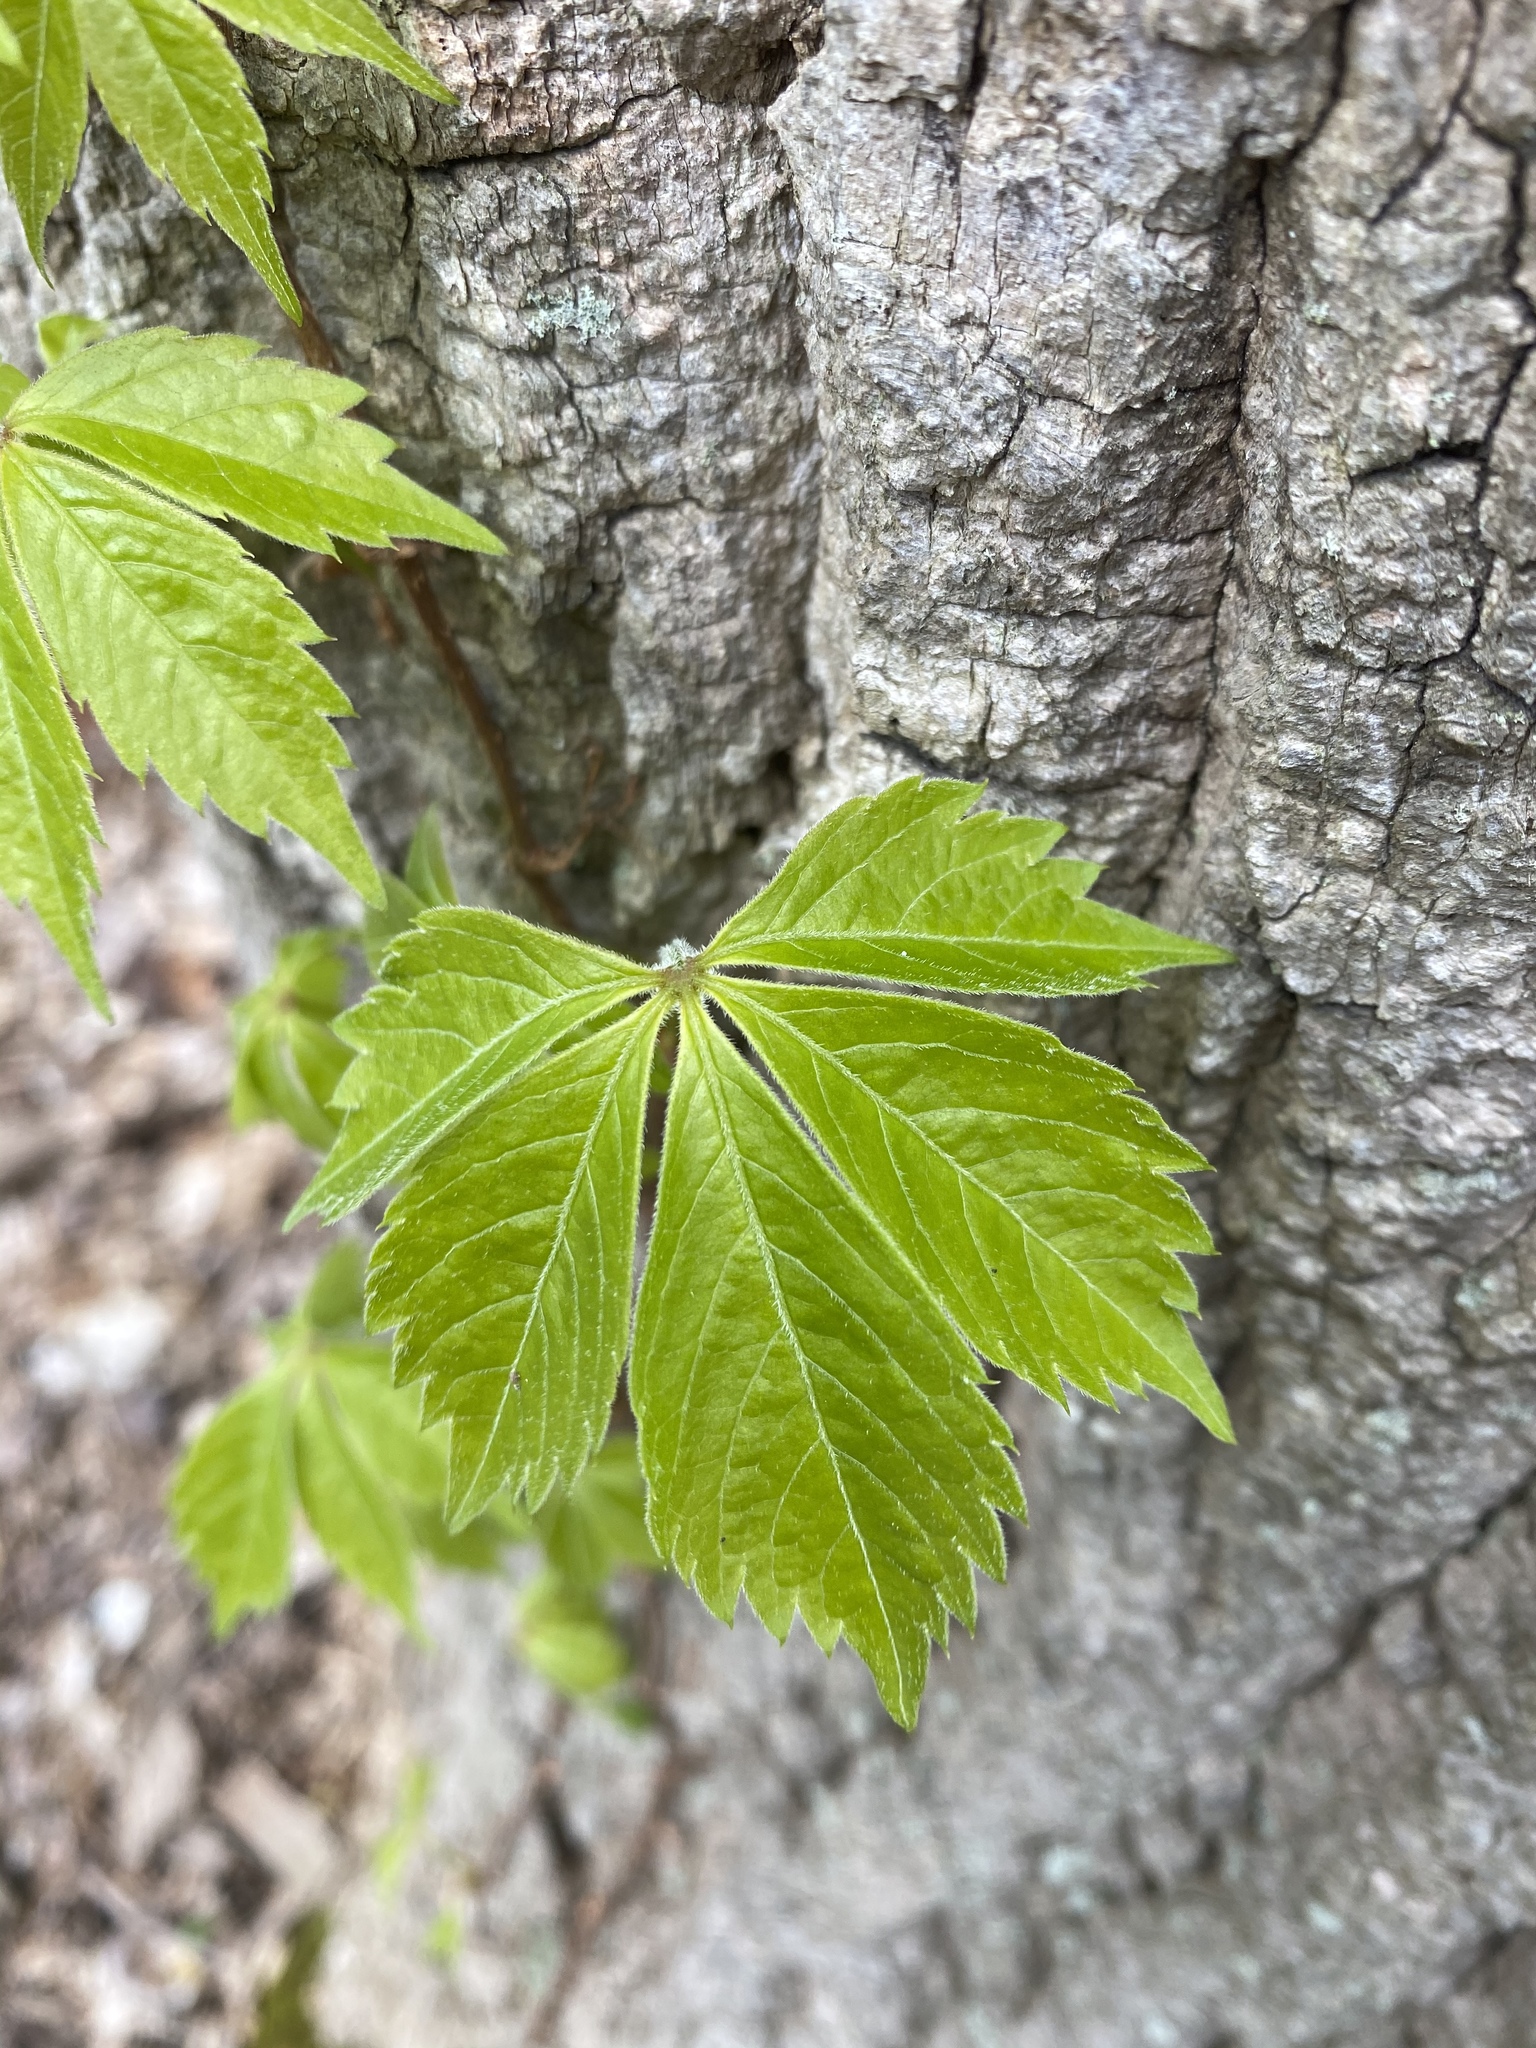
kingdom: Plantae
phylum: Tracheophyta
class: Magnoliopsida
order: Vitales
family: Vitaceae
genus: Parthenocissus
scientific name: Parthenocissus quinquefolia
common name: Virginia-creeper
